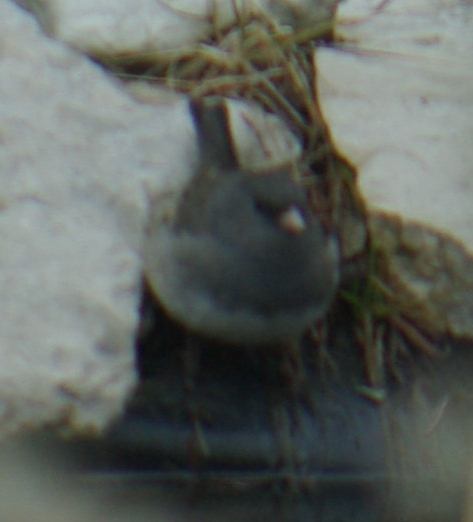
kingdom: Animalia
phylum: Chordata
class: Aves
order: Passeriformes
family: Passerellidae
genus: Junco
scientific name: Junco hyemalis
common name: Dark-eyed junco
